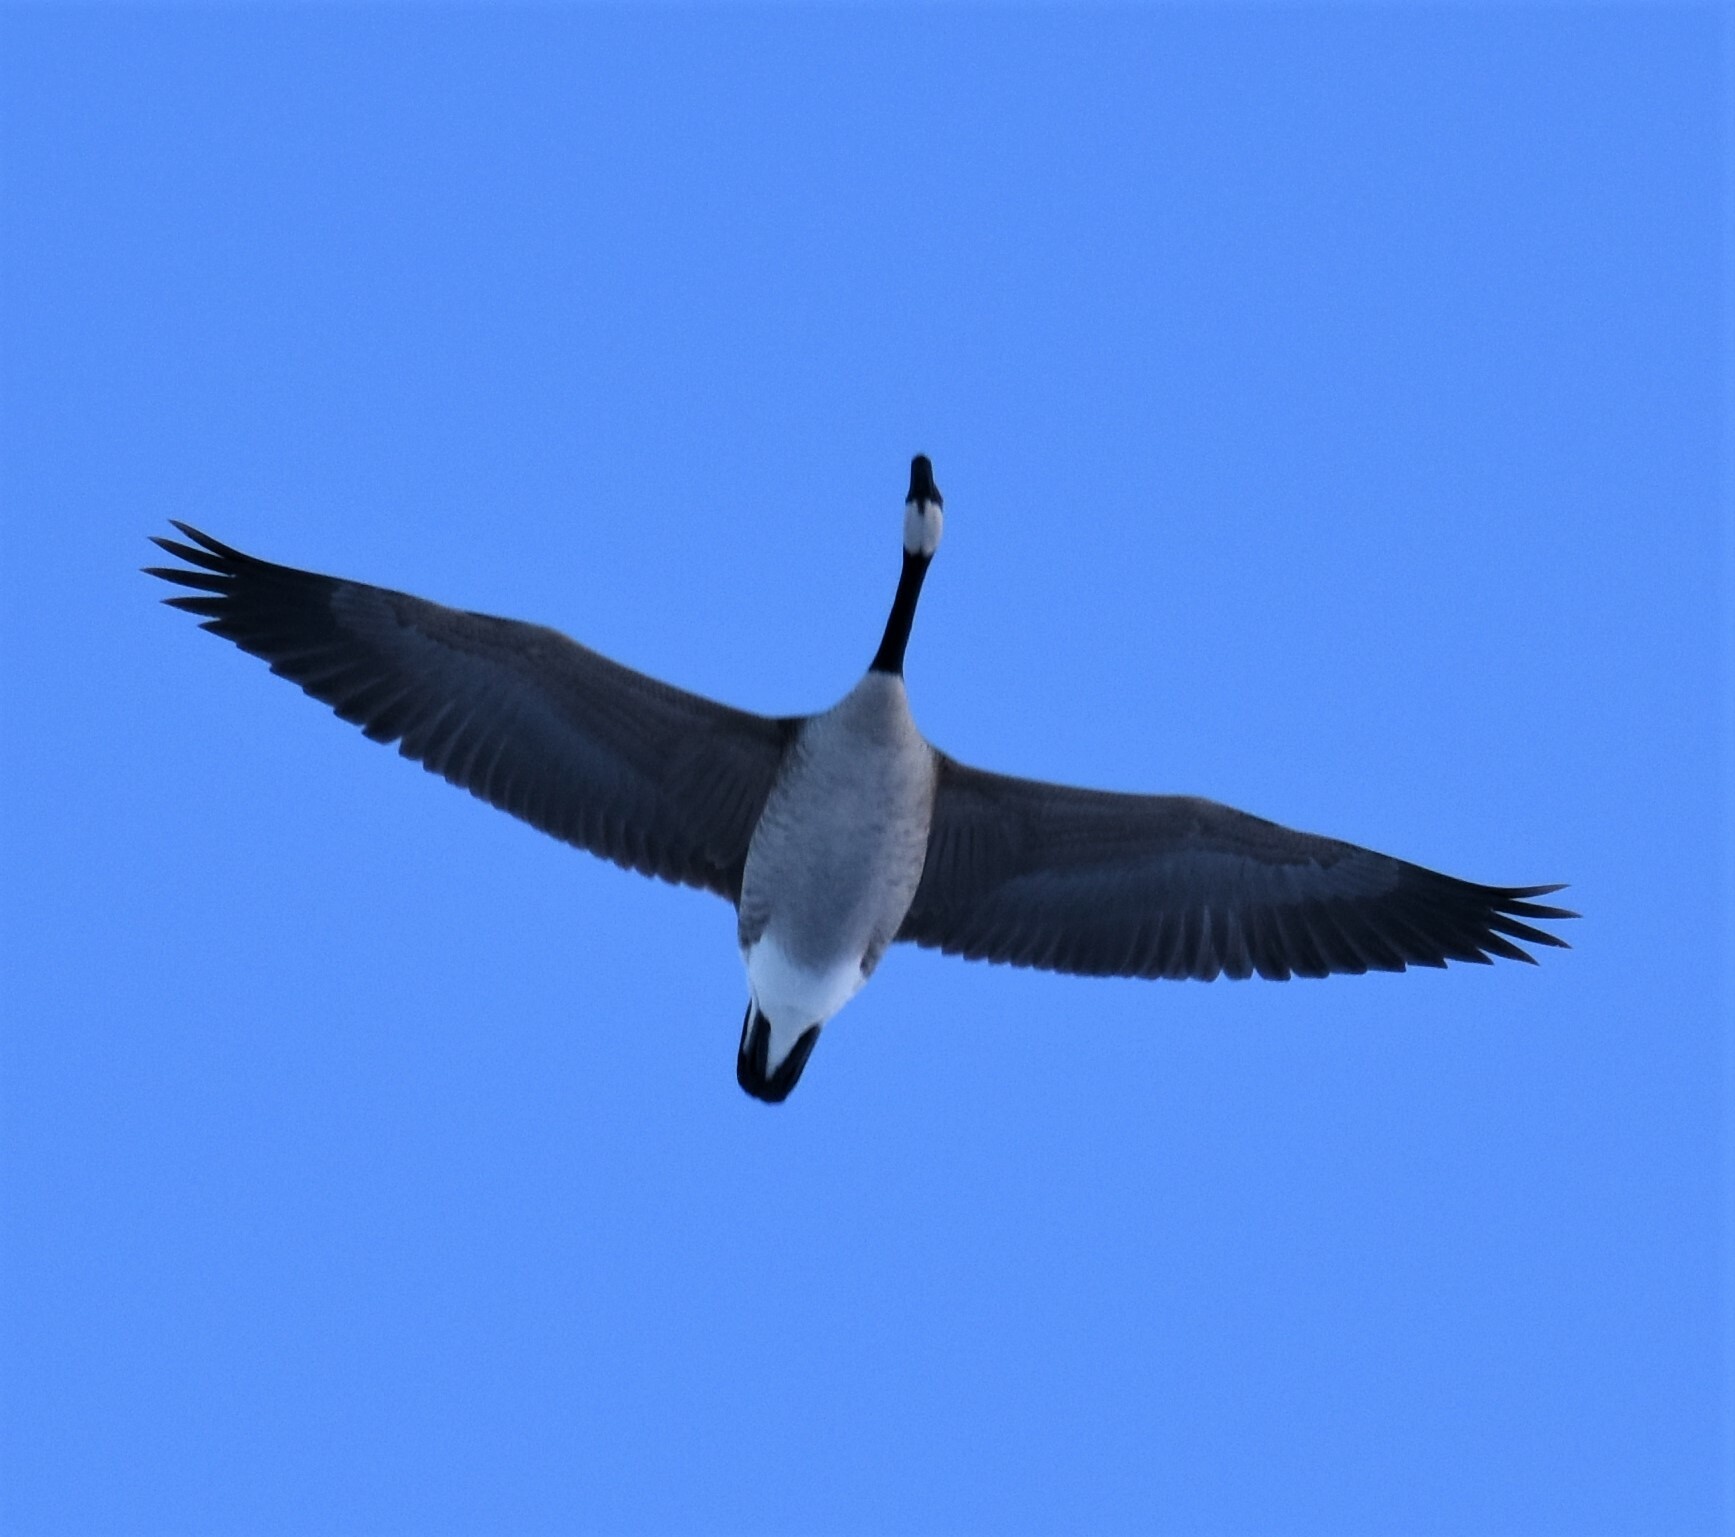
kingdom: Animalia
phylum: Chordata
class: Aves
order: Anseriformes
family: Anatidae
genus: Branta
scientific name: Branta canadensis
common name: Canada goose
